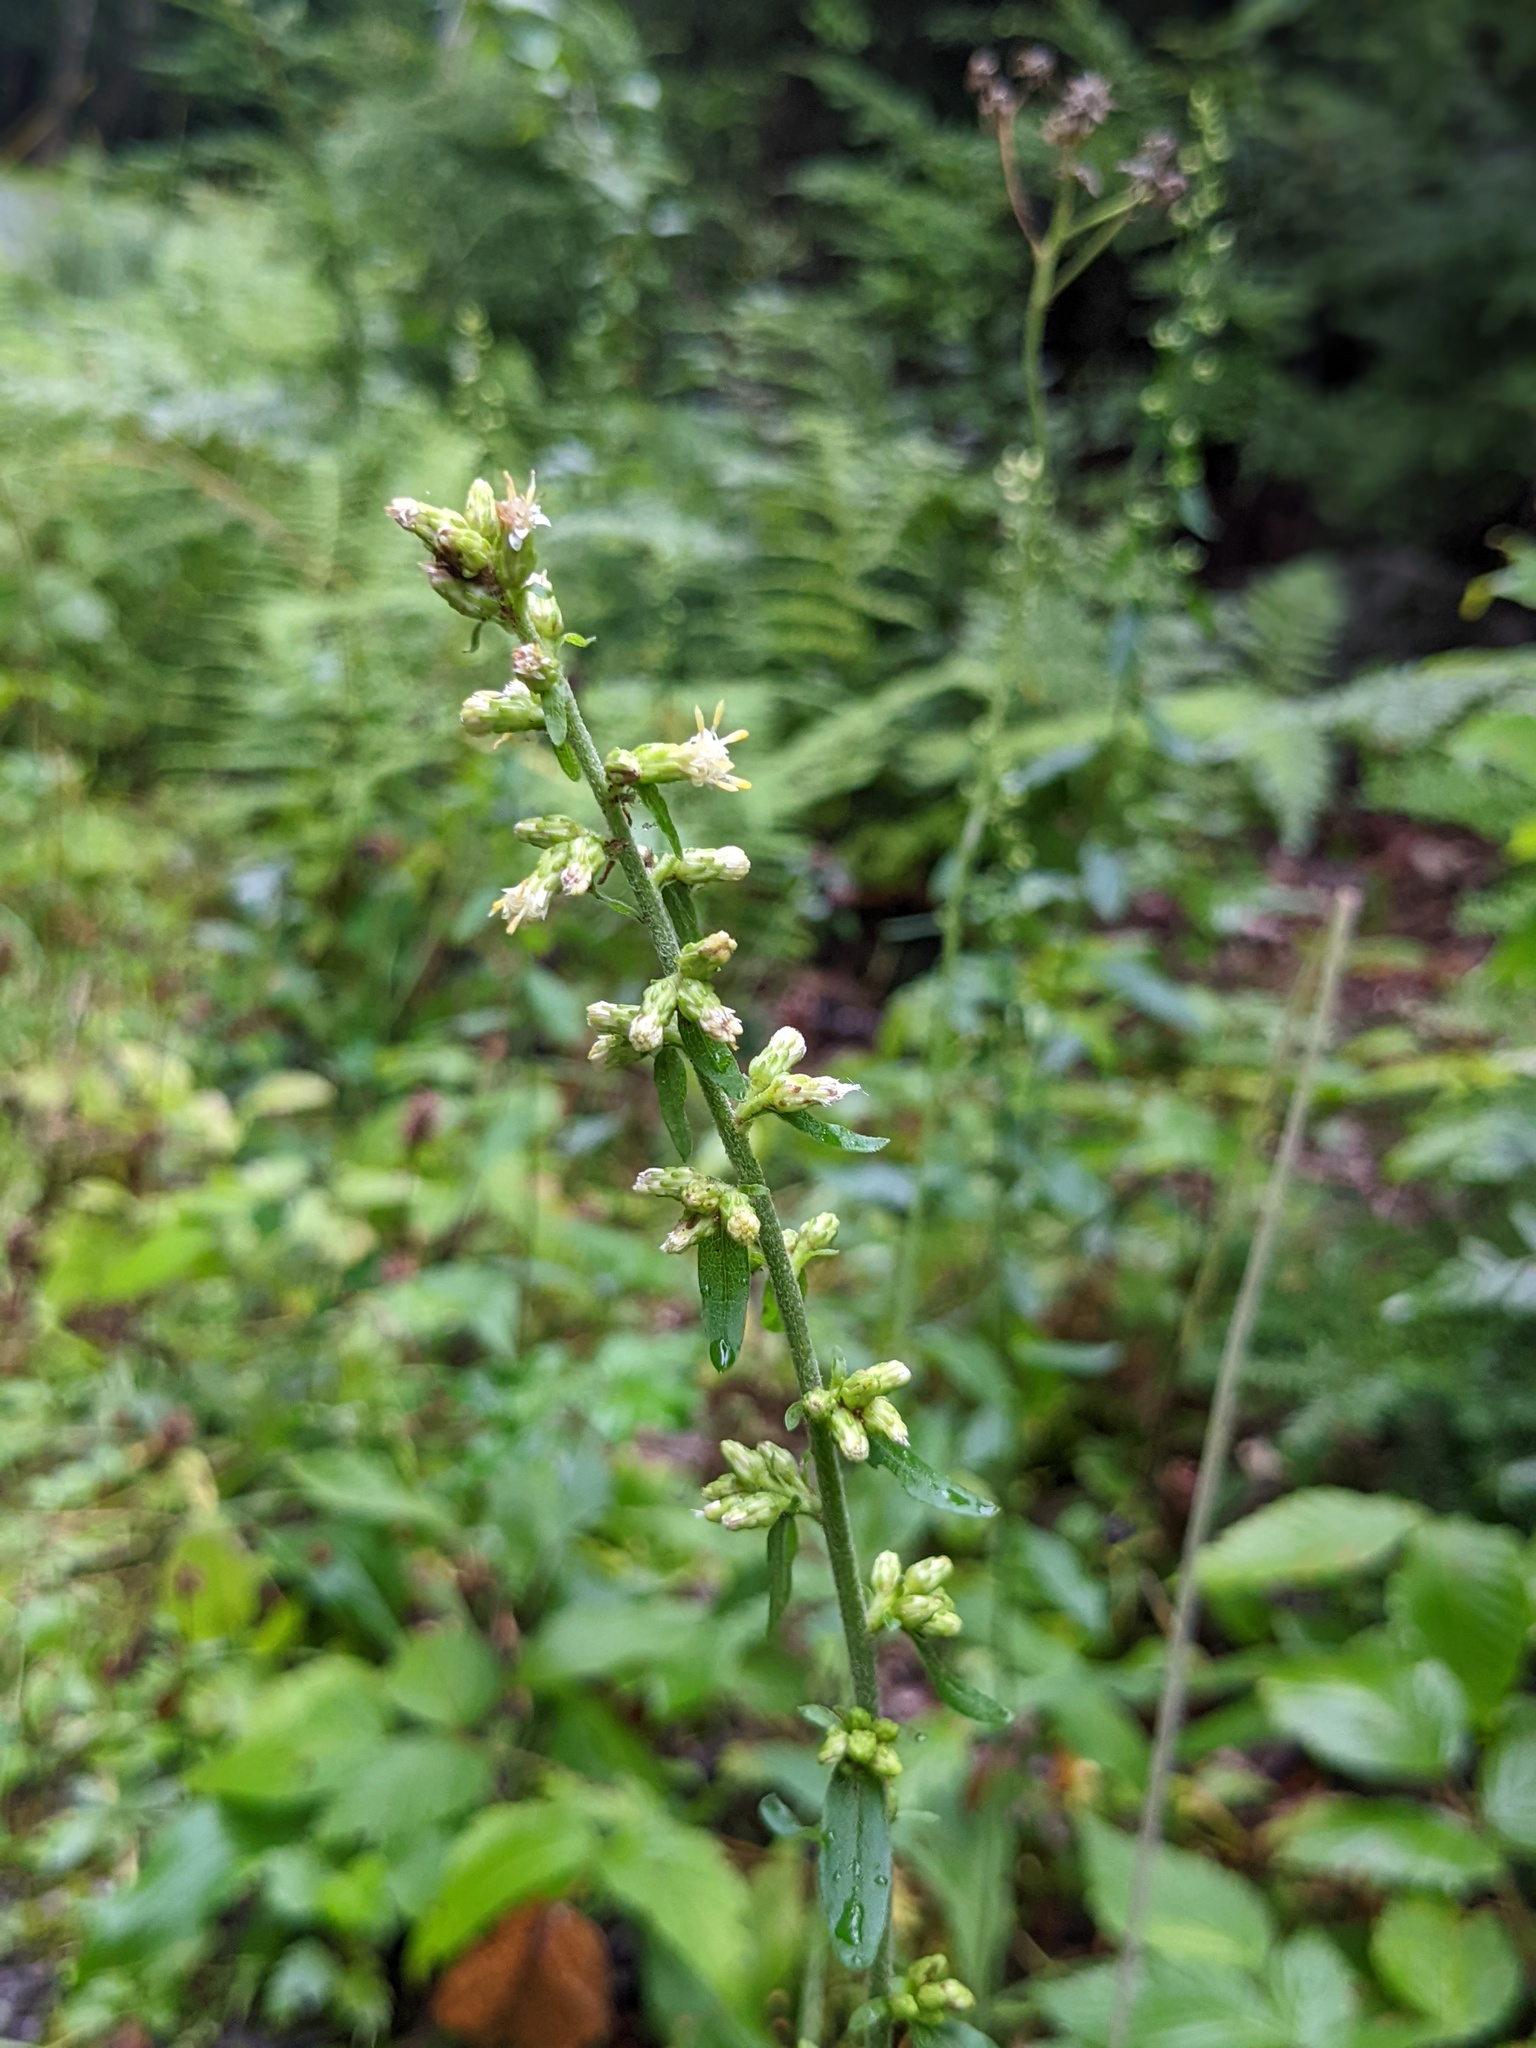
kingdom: Plantae
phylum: Tracheophyta
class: Magnoliopsida
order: Asterales
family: Asteraceae
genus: Solidago
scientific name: Solidago bicolor
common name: Silverrod
